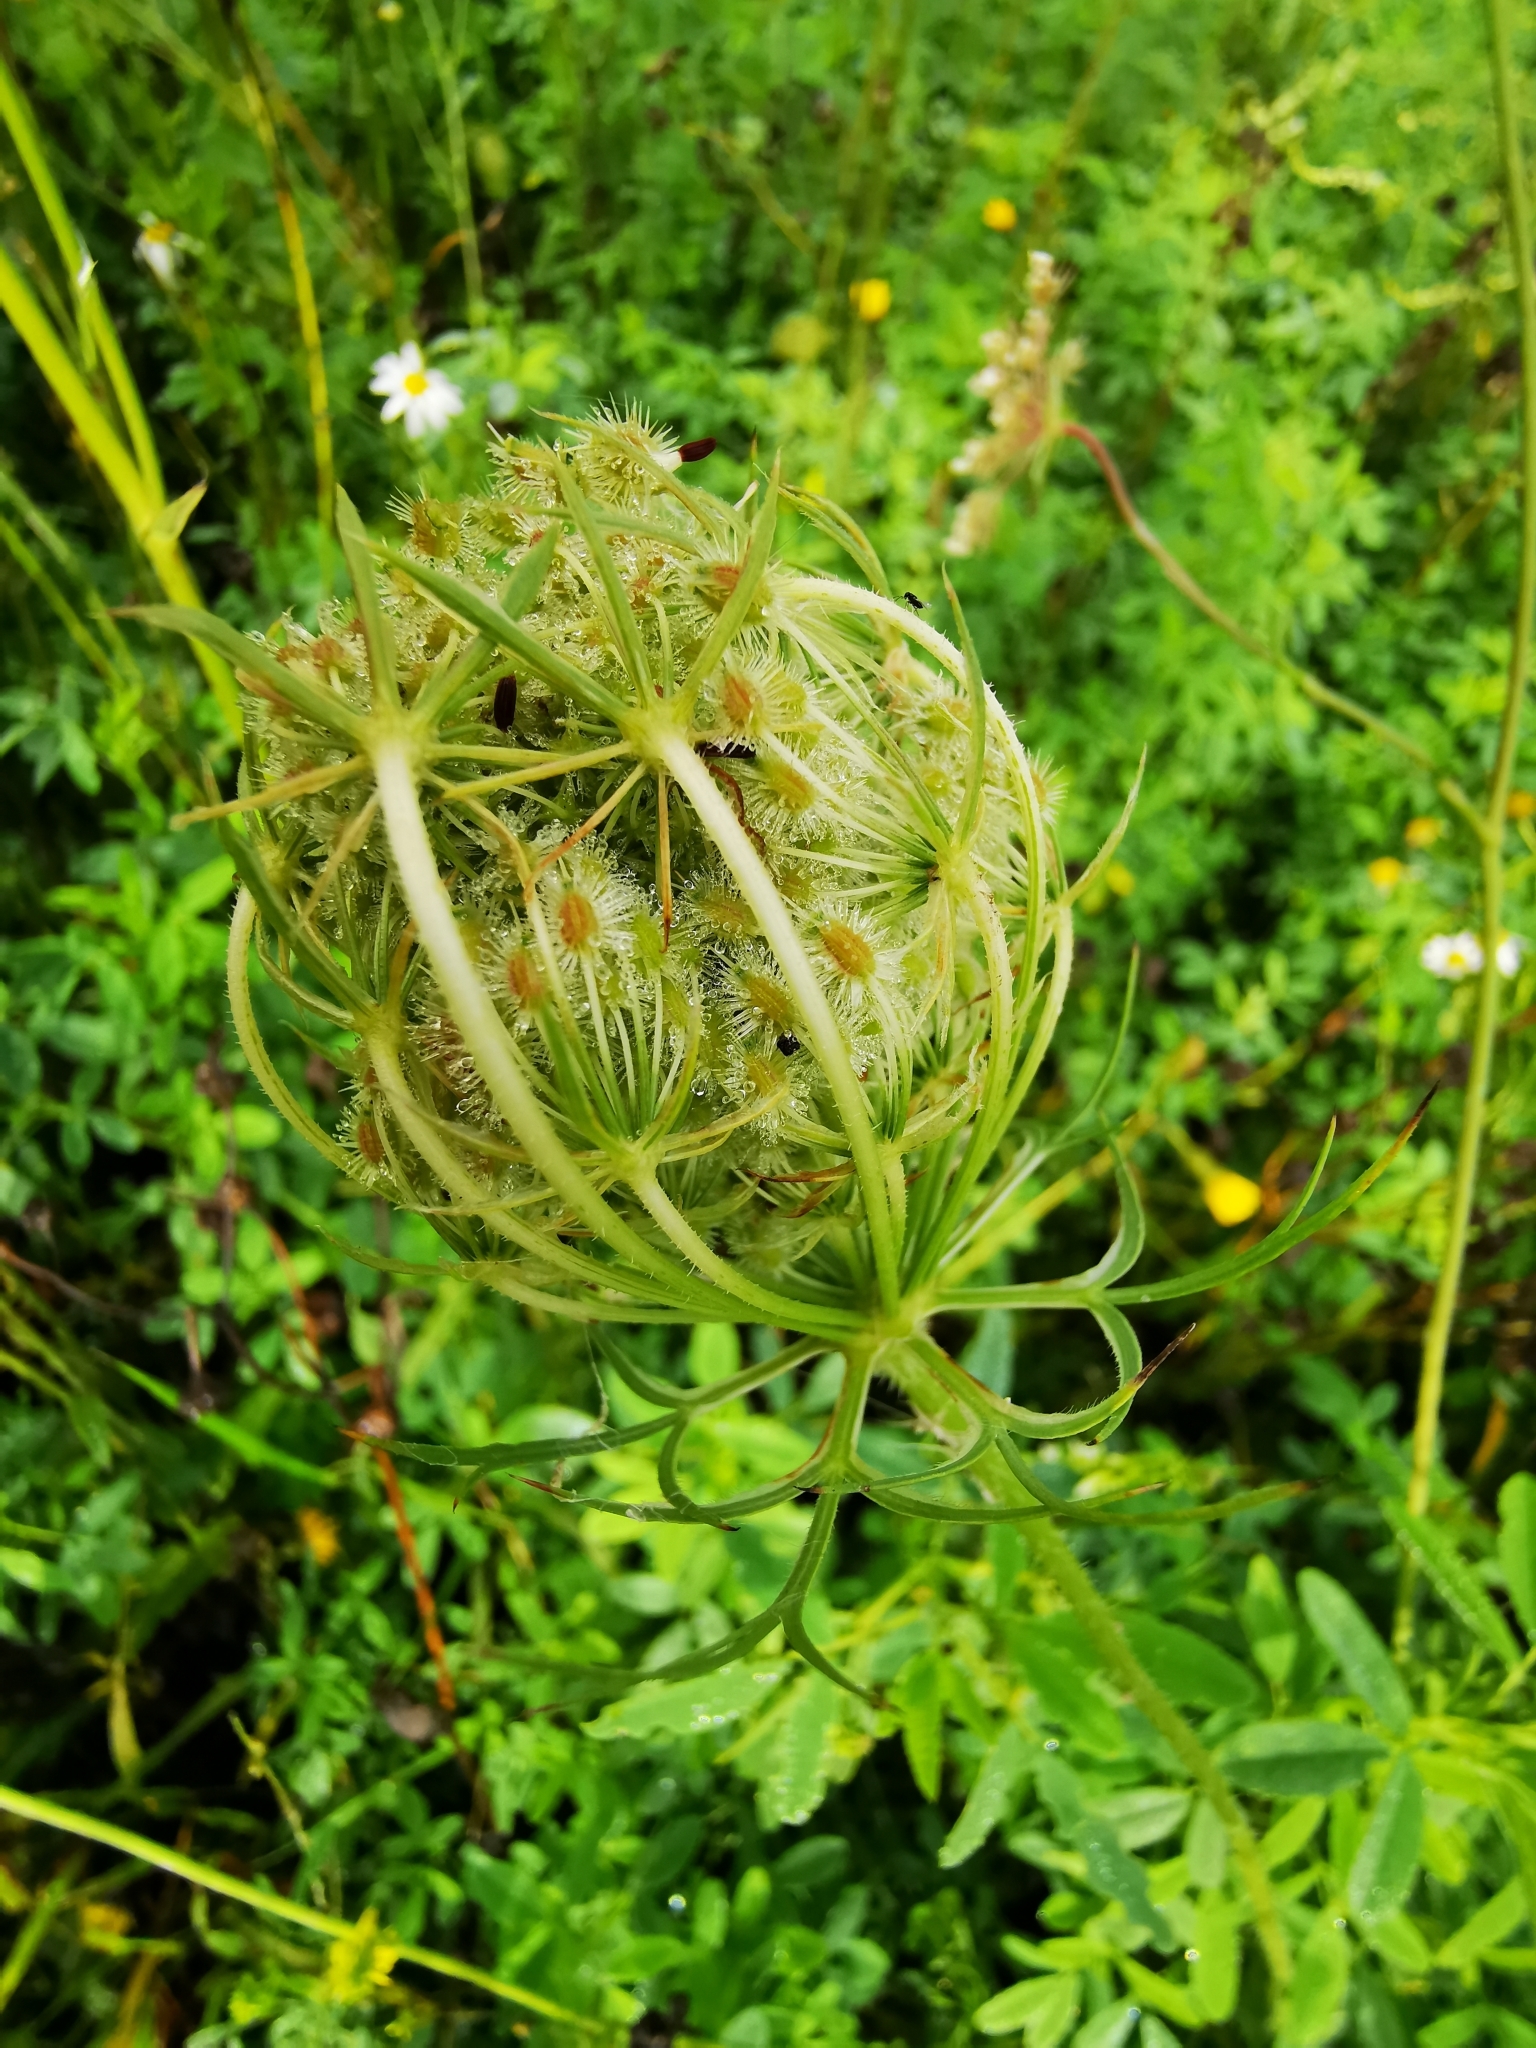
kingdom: Plantae
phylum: Tracheophyta
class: Magnoliopsida
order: Apiales
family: Apiaceae
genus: Daucus
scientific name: Daucus carota
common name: Wild carrot
